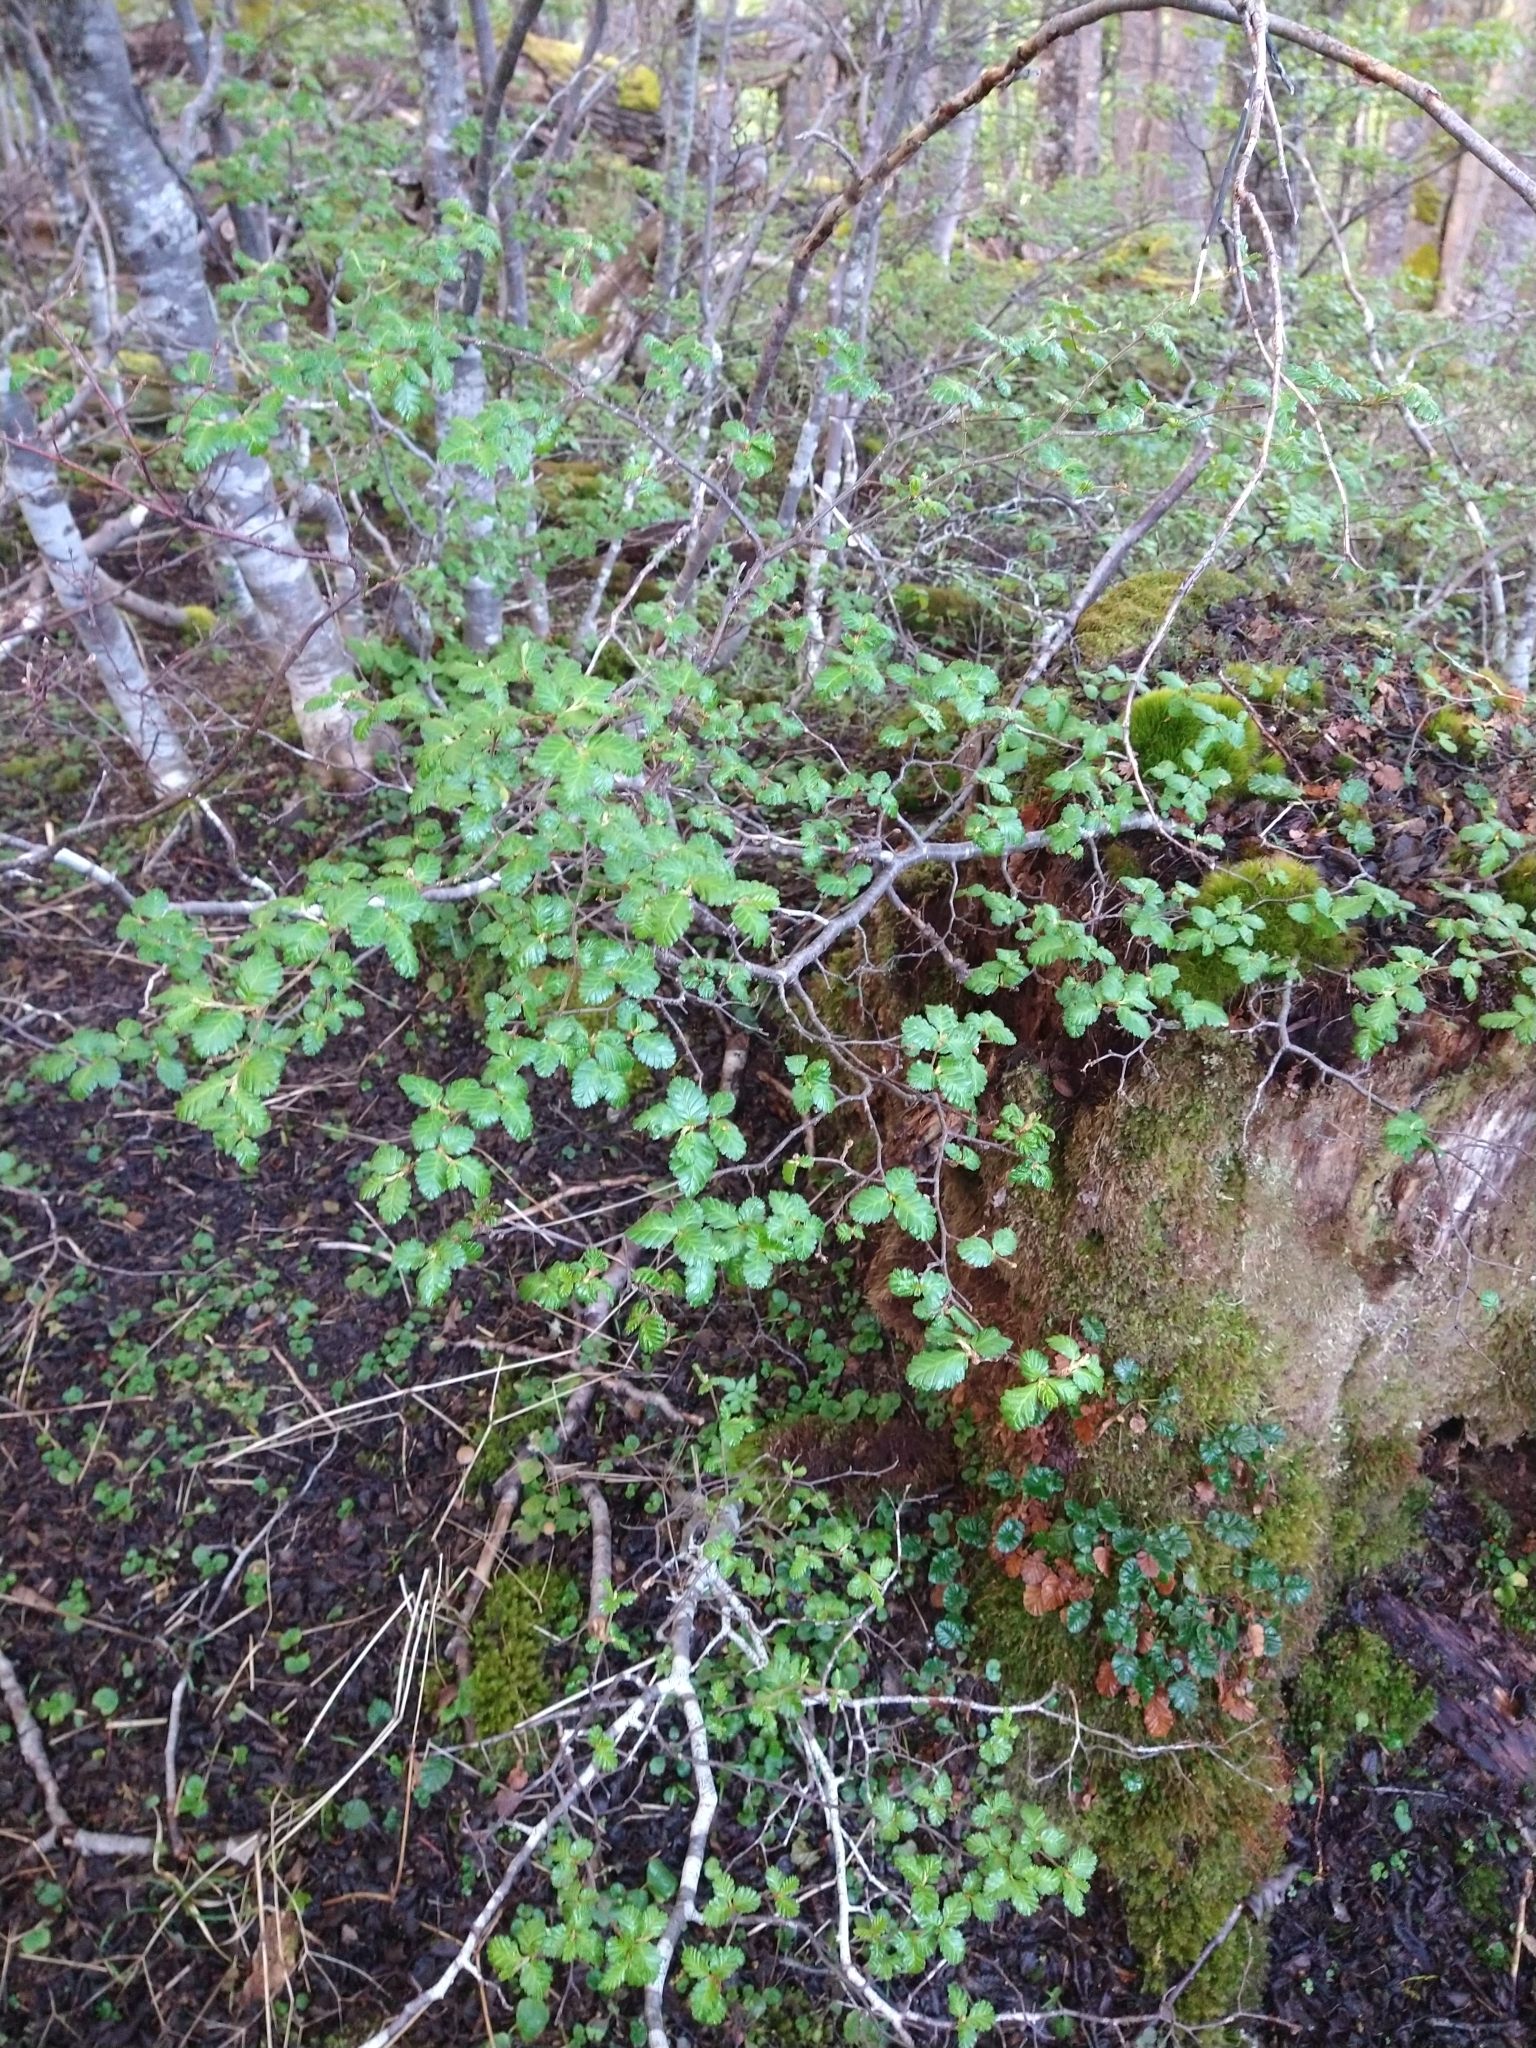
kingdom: Plantae
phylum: Tracheophyta
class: Magnoliopsida
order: Fagales
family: Nothofagaceae
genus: Nothofagus
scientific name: Nothofagus pumilio
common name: Lenga beech
